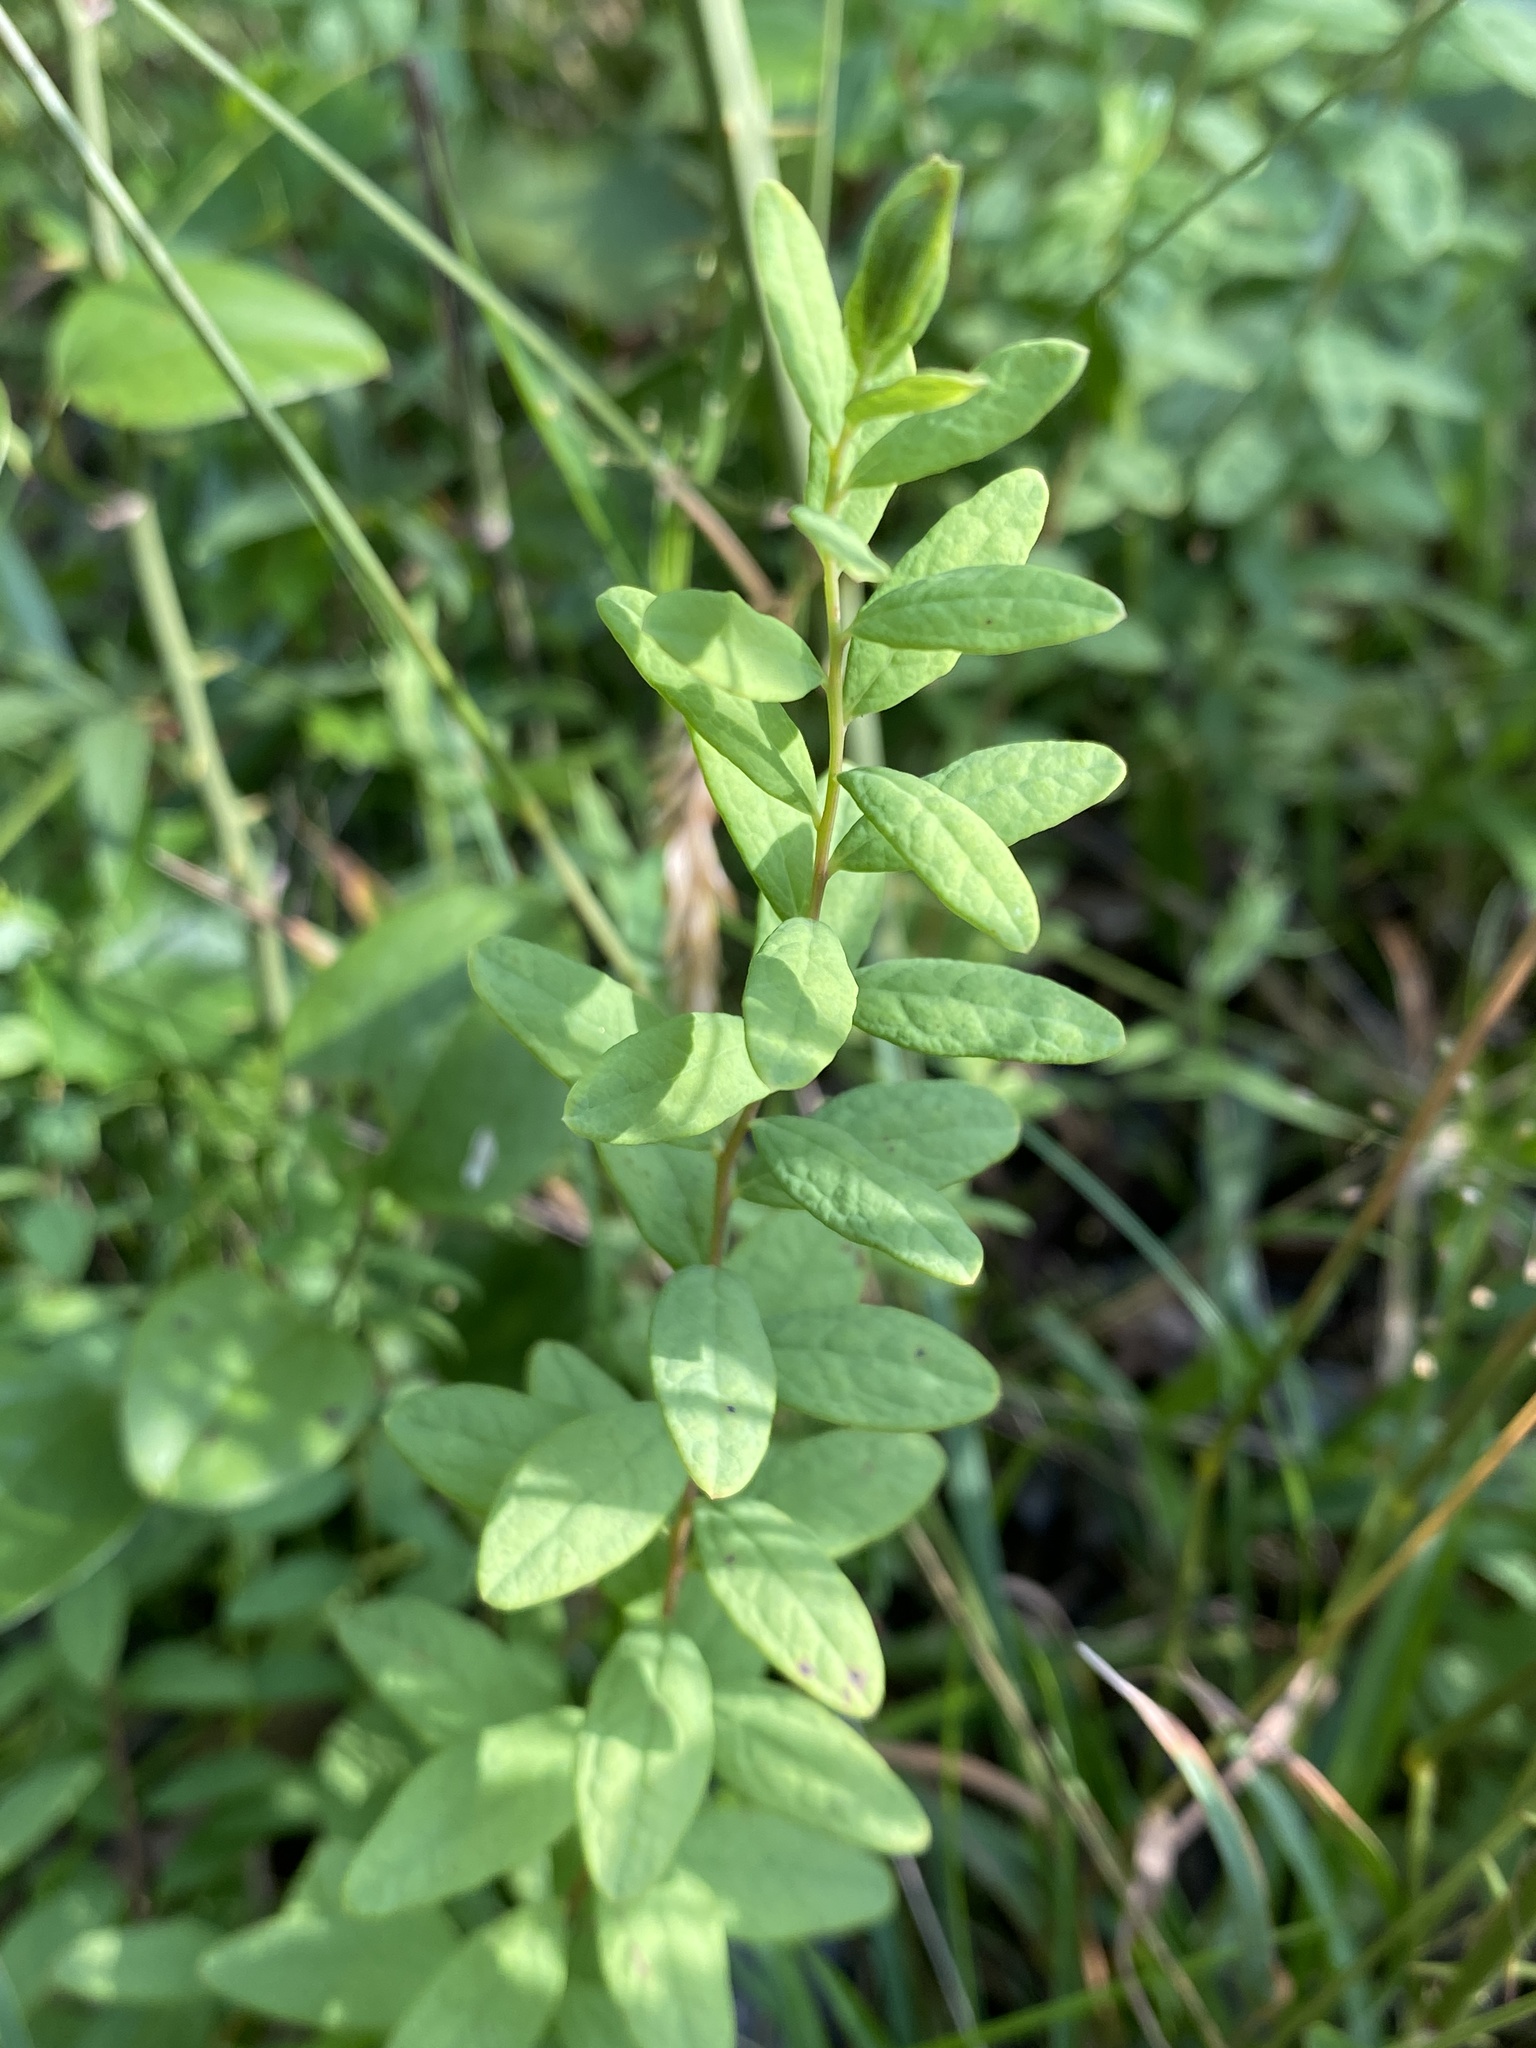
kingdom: Plantae
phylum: Tracheophyta
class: Magnoliopsida
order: Santalales
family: Comandraceae
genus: Comandra
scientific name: Comandra umbellata
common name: Bastard toadflax
